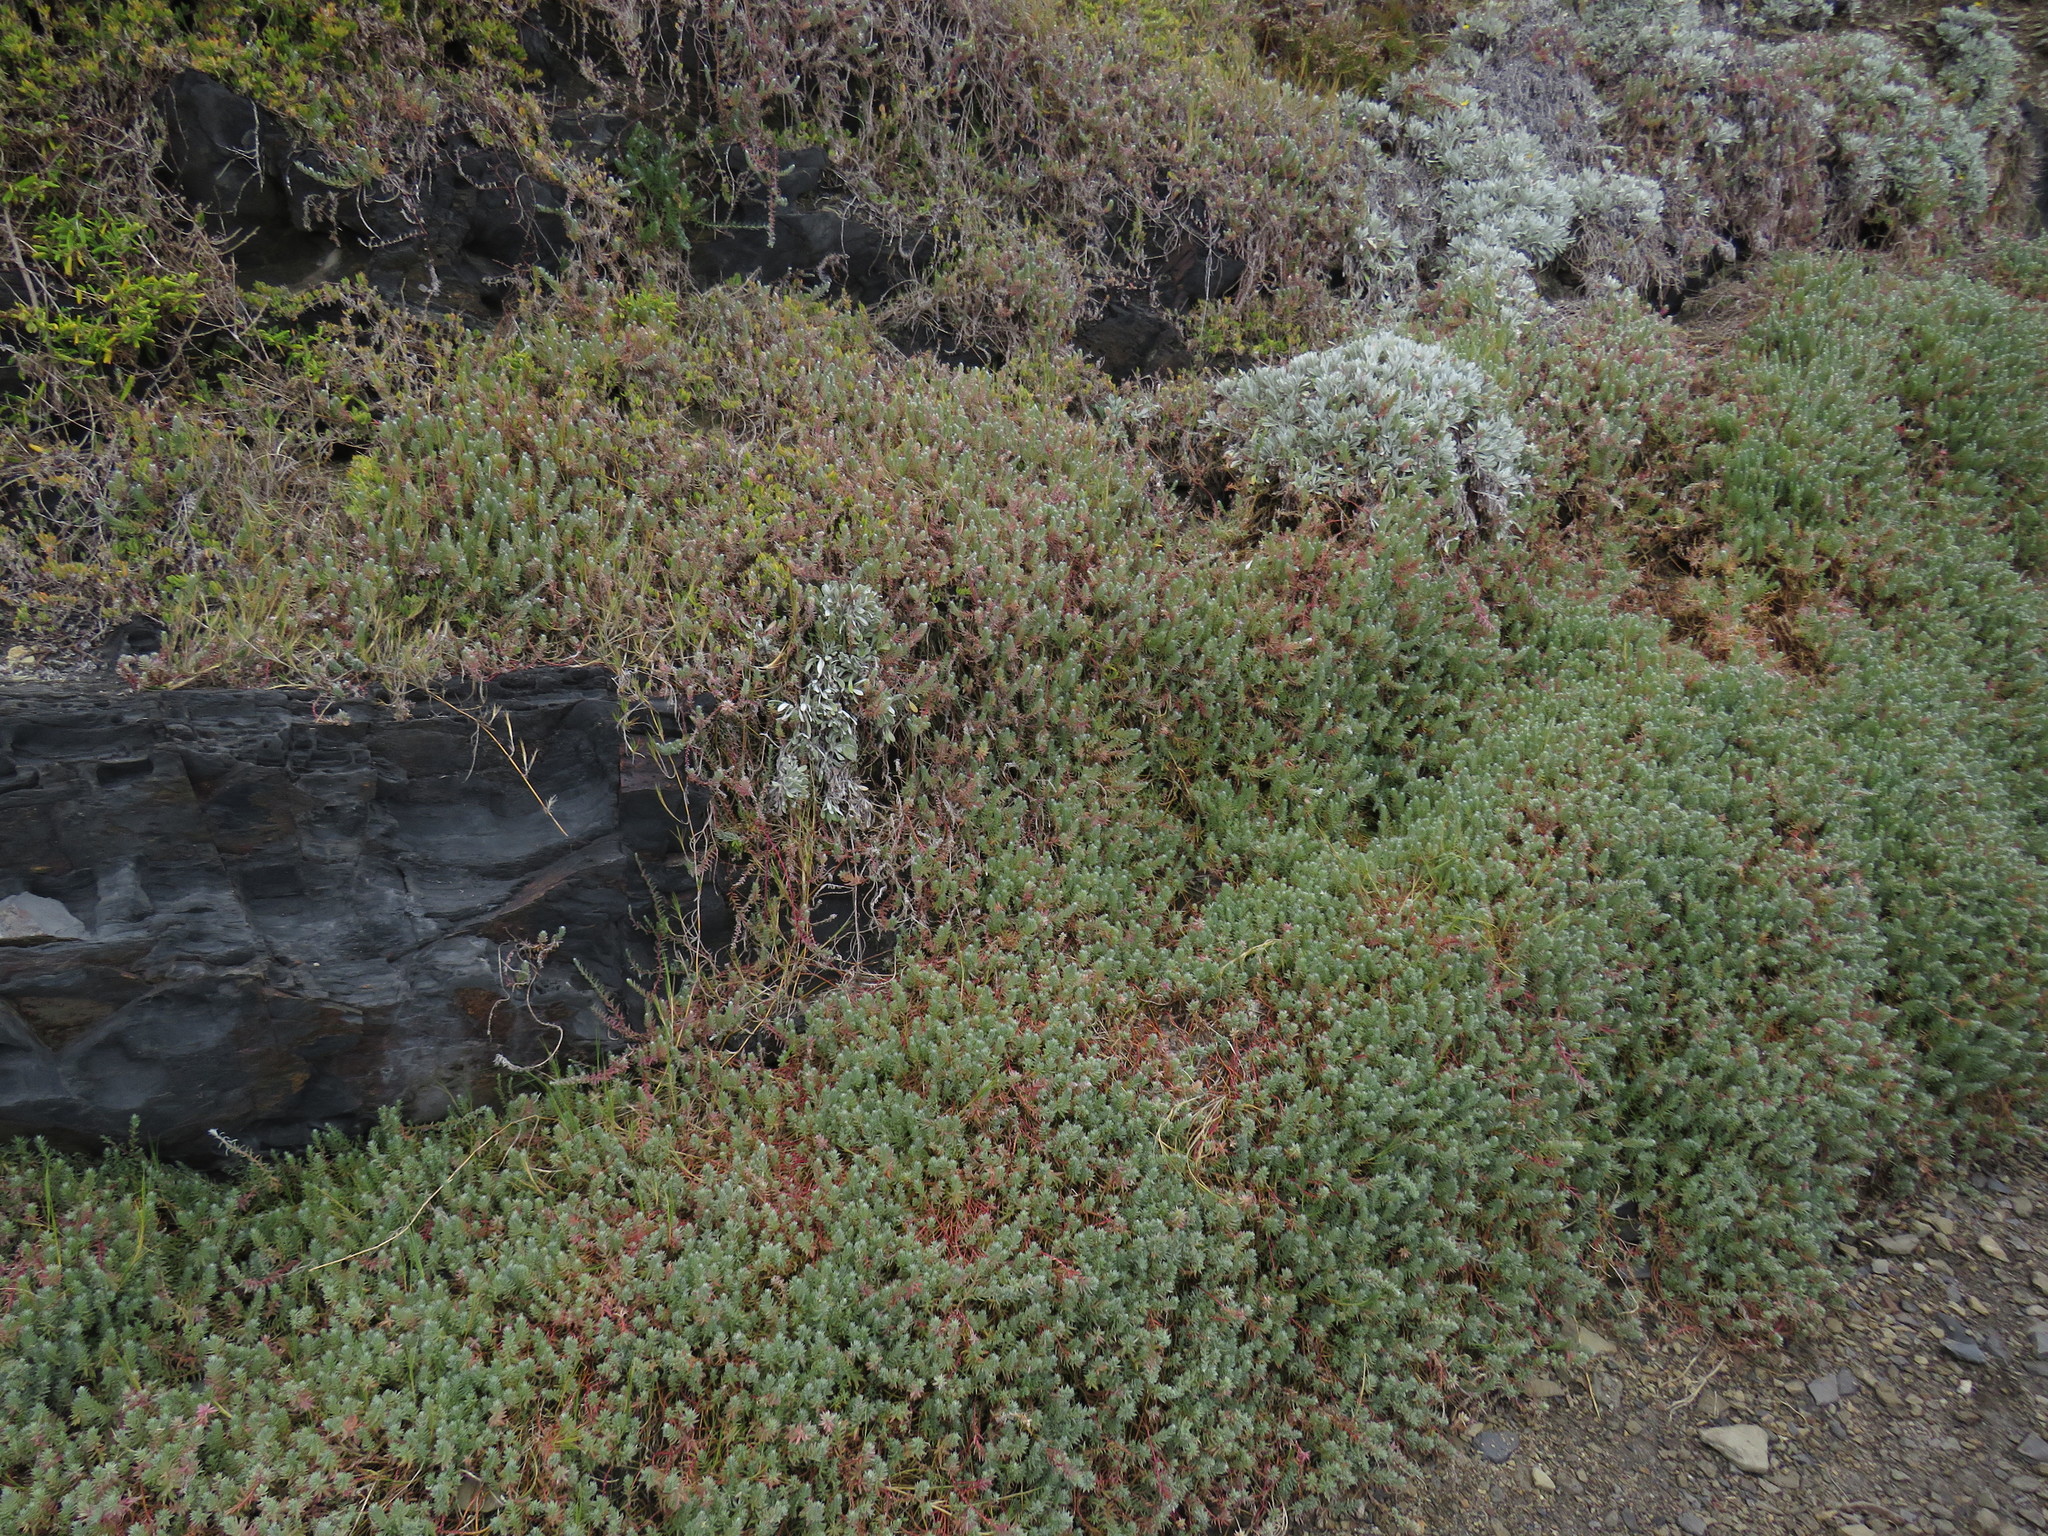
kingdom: Plantae
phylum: Tracheophyta
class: Magnoliopsida
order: Caryophyllales
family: Amaranthaceae
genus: Chenolea
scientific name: Chenolea diffusa
